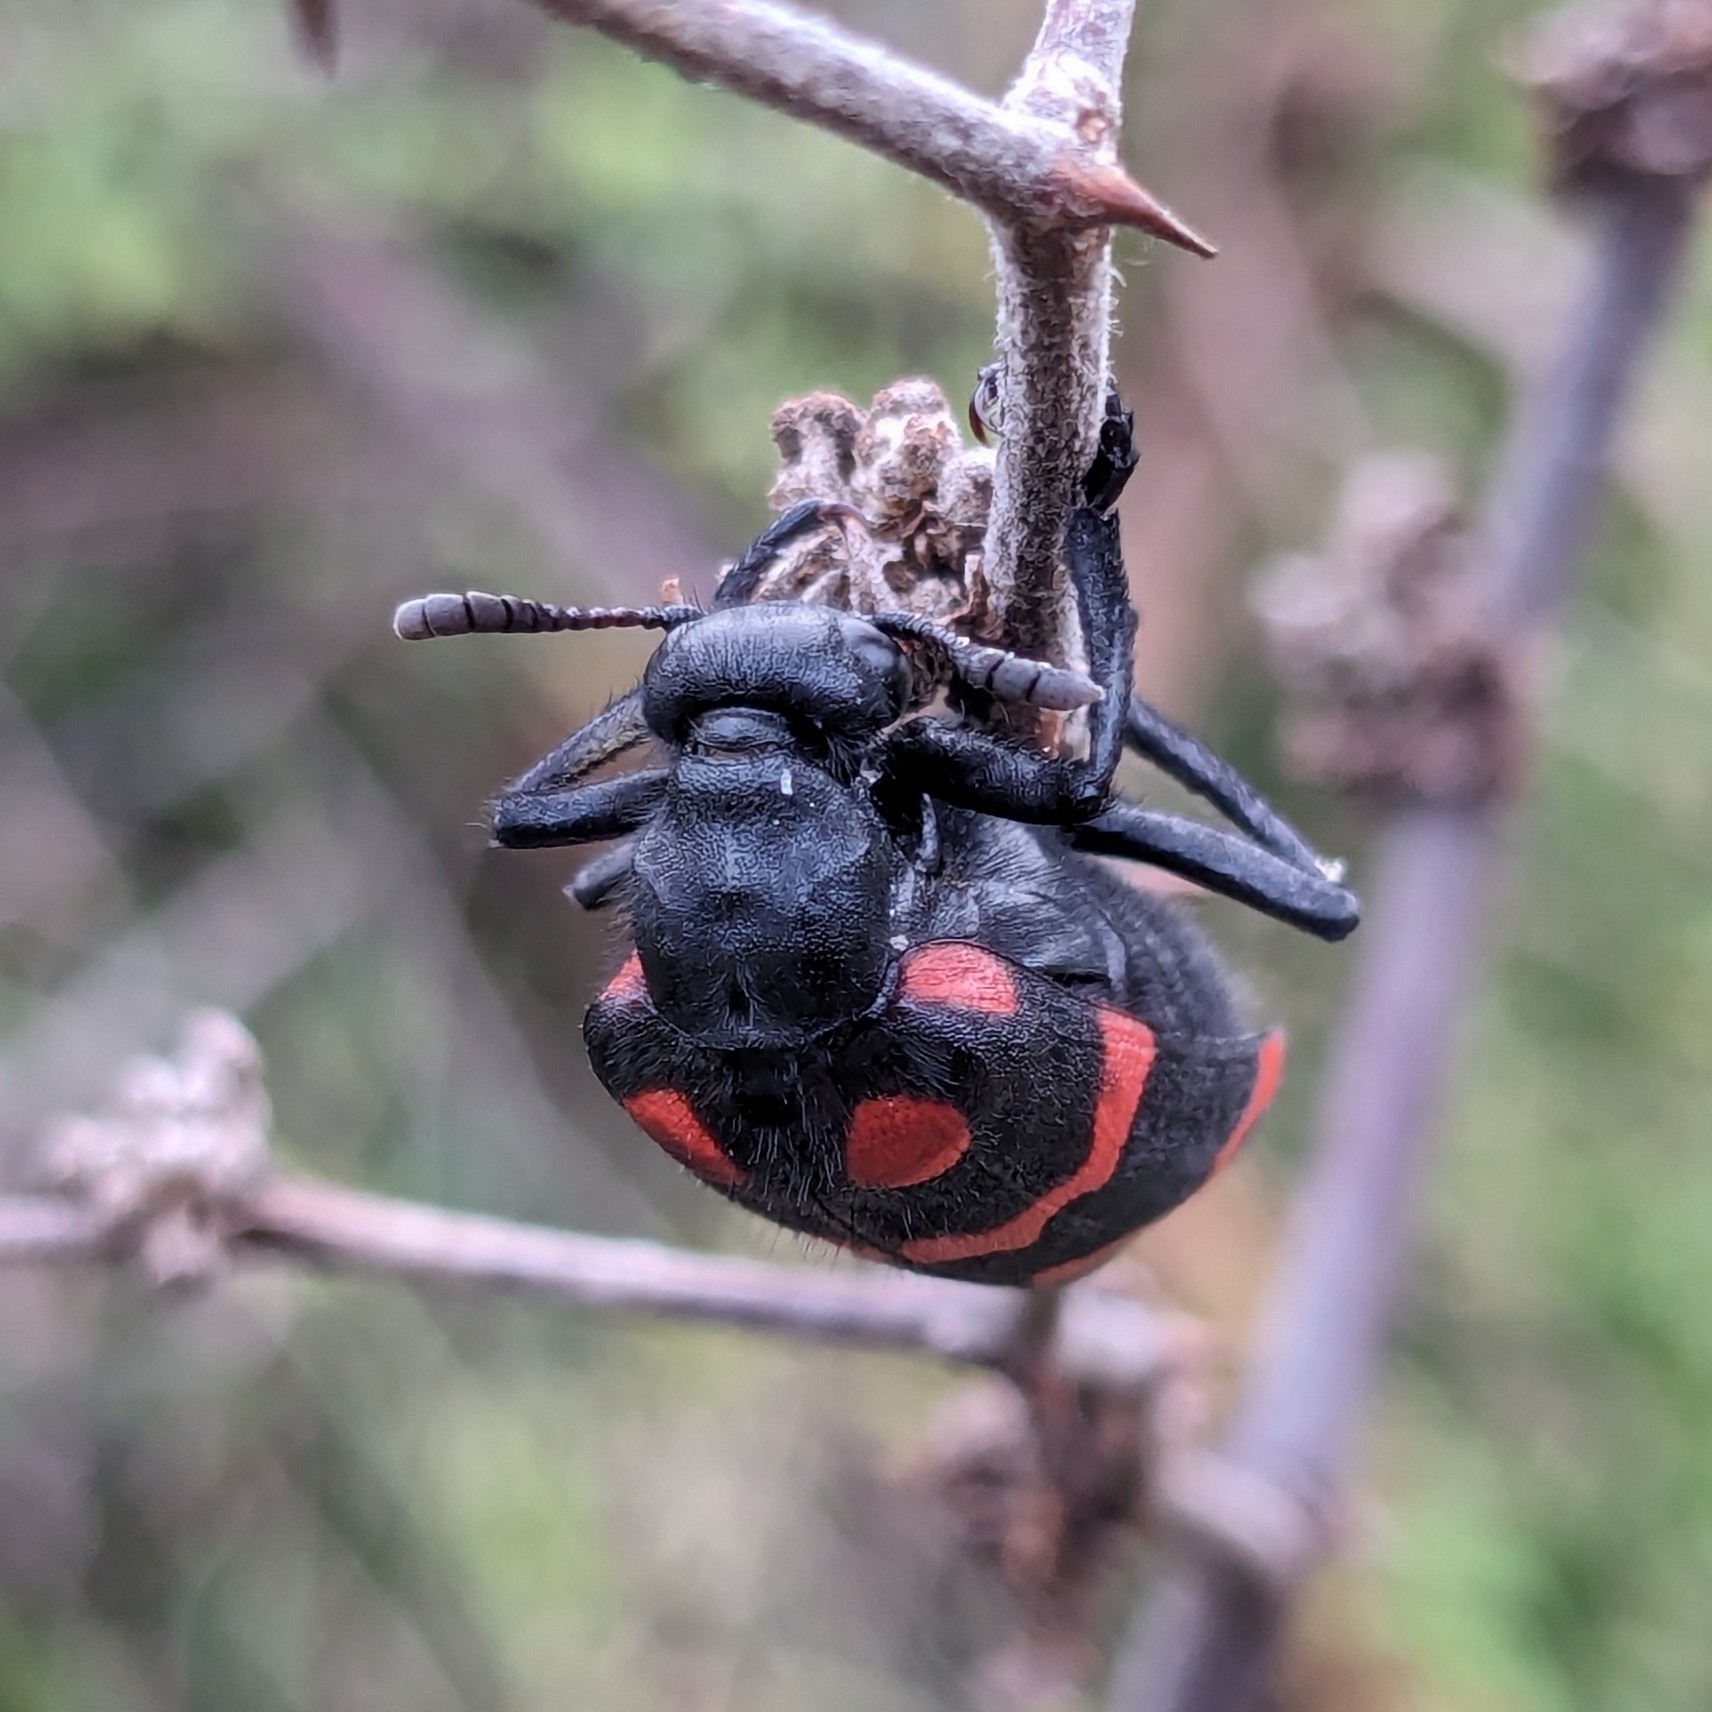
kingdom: Animalia
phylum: Arthropoda
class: Insecta
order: Coleoptera
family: Meloidae
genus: Hycleus
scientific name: Hycleus biundulatus
